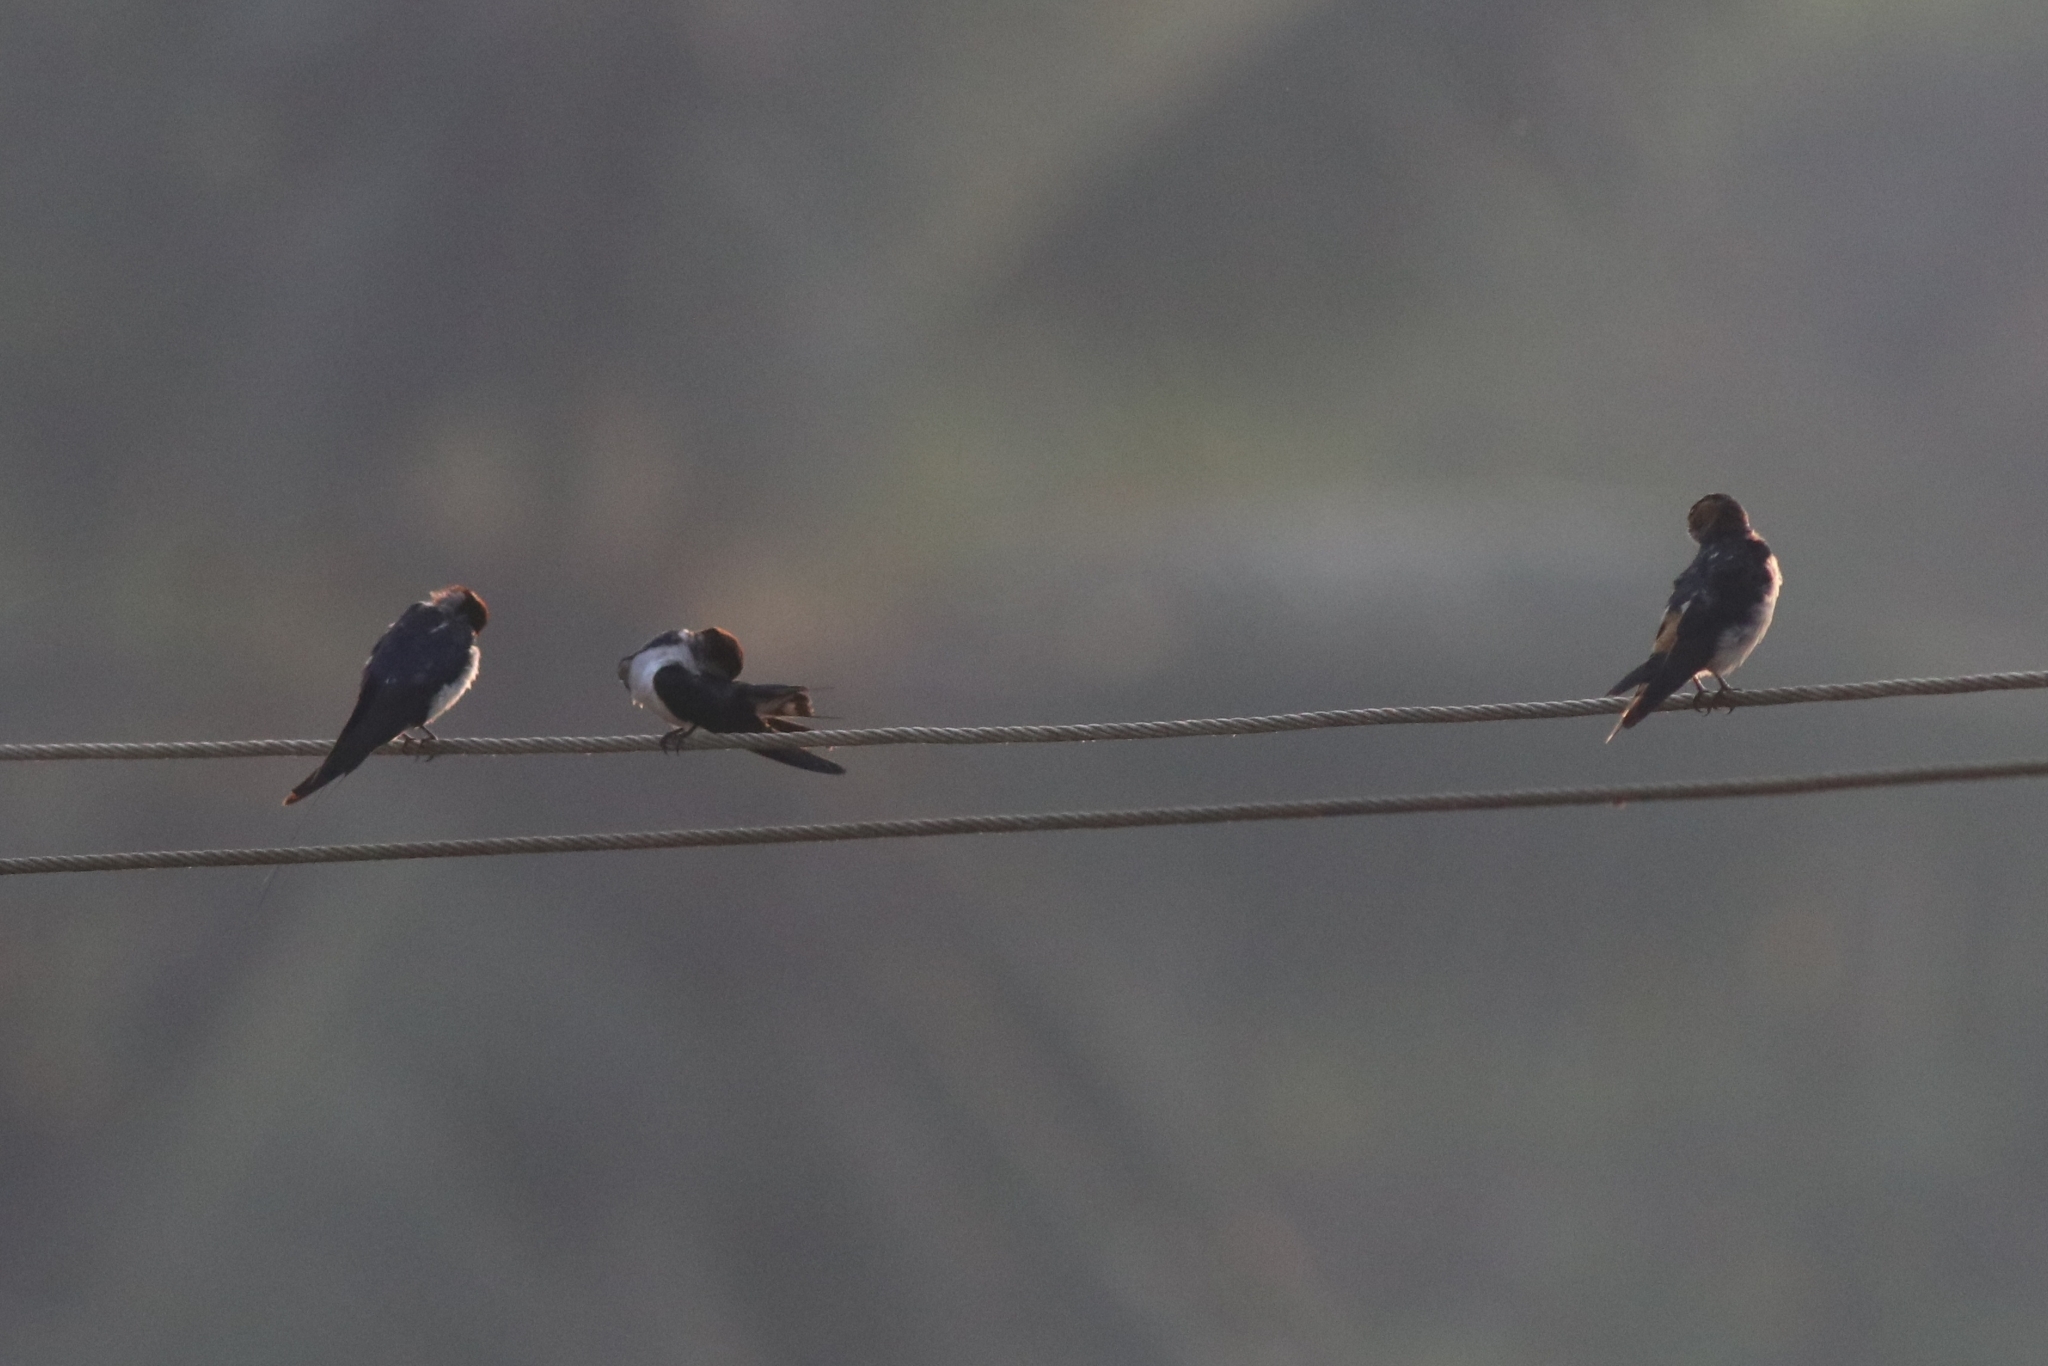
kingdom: Animalia
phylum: Chordata
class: Aves
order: Passeriformes
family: Hirundinidae
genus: Hirundo
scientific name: Hirundo smithii
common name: Wire-tailed swallow
